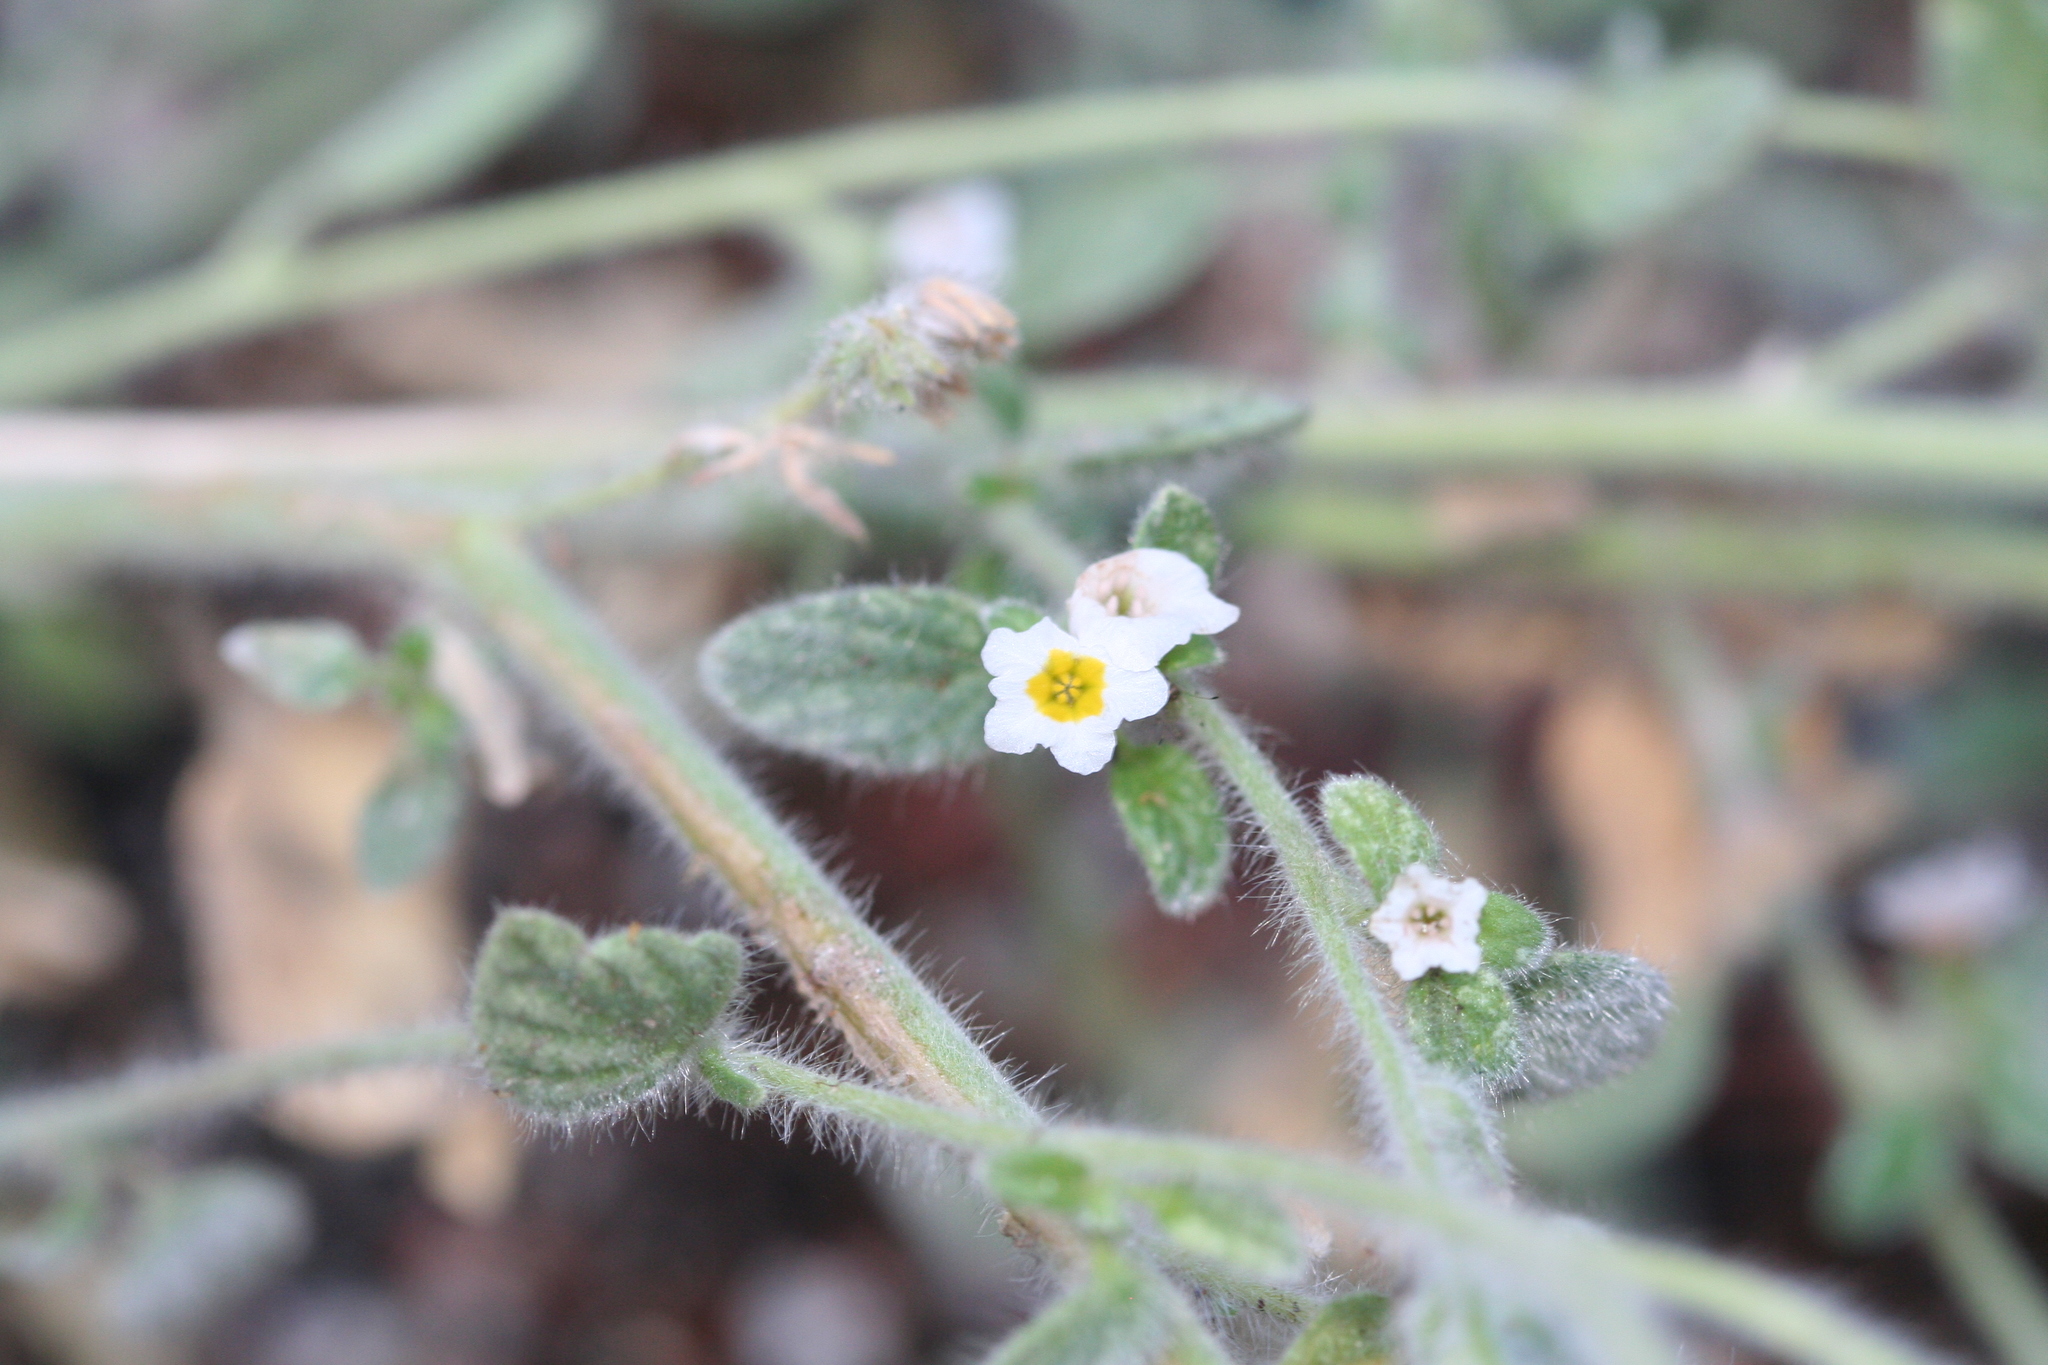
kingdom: Plantae
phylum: Tracheophyta
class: Magnoliopsida
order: Boraginales
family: Heliotropiaceae
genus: Heliotropium
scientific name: Heliotropium europaeum
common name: European heliotrope
